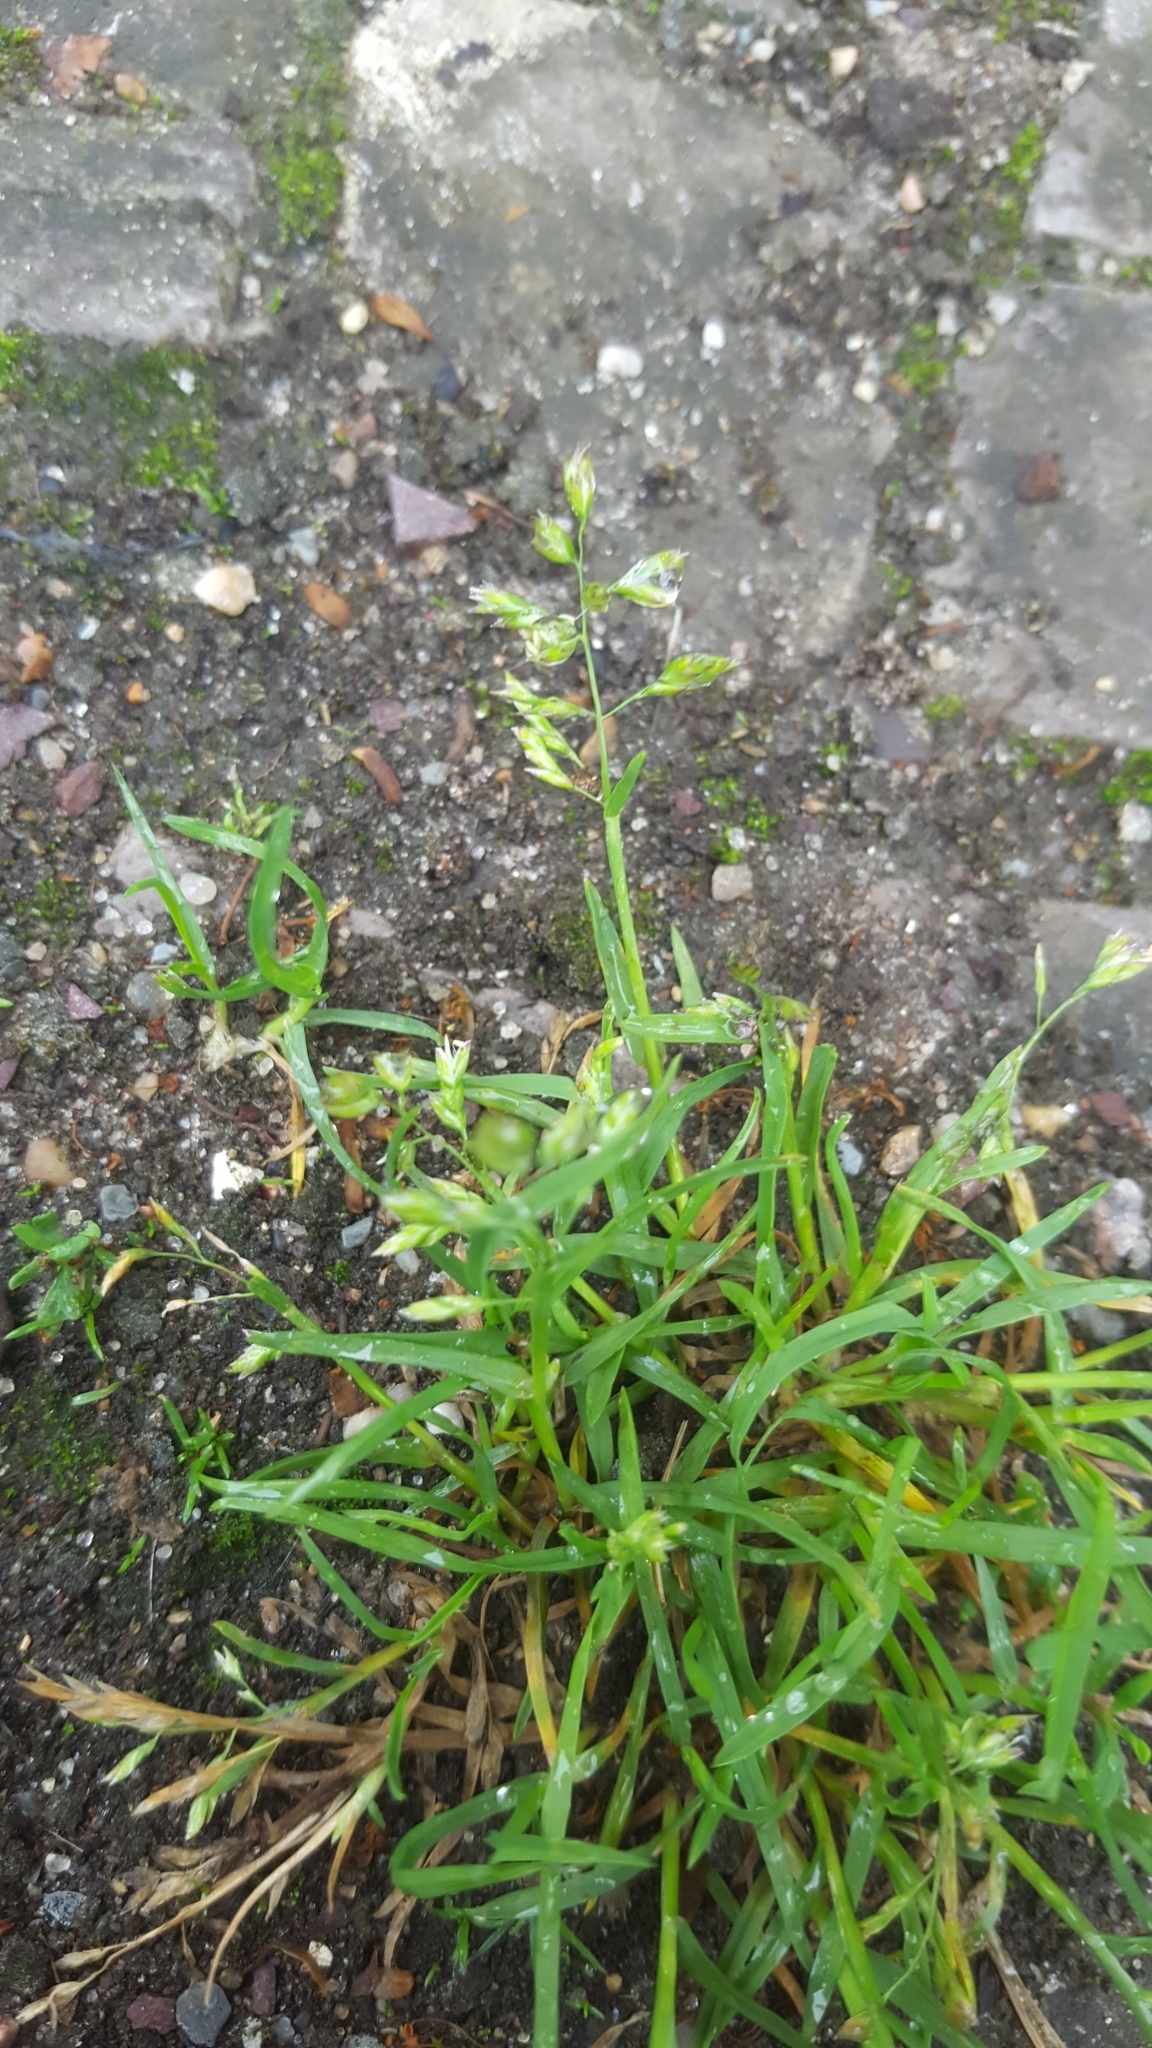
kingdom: Plantae
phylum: Tracheophyta
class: Liliopsida
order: Poales
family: Poaceae
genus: Poa
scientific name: Poa annua
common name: Annual bluegrass
